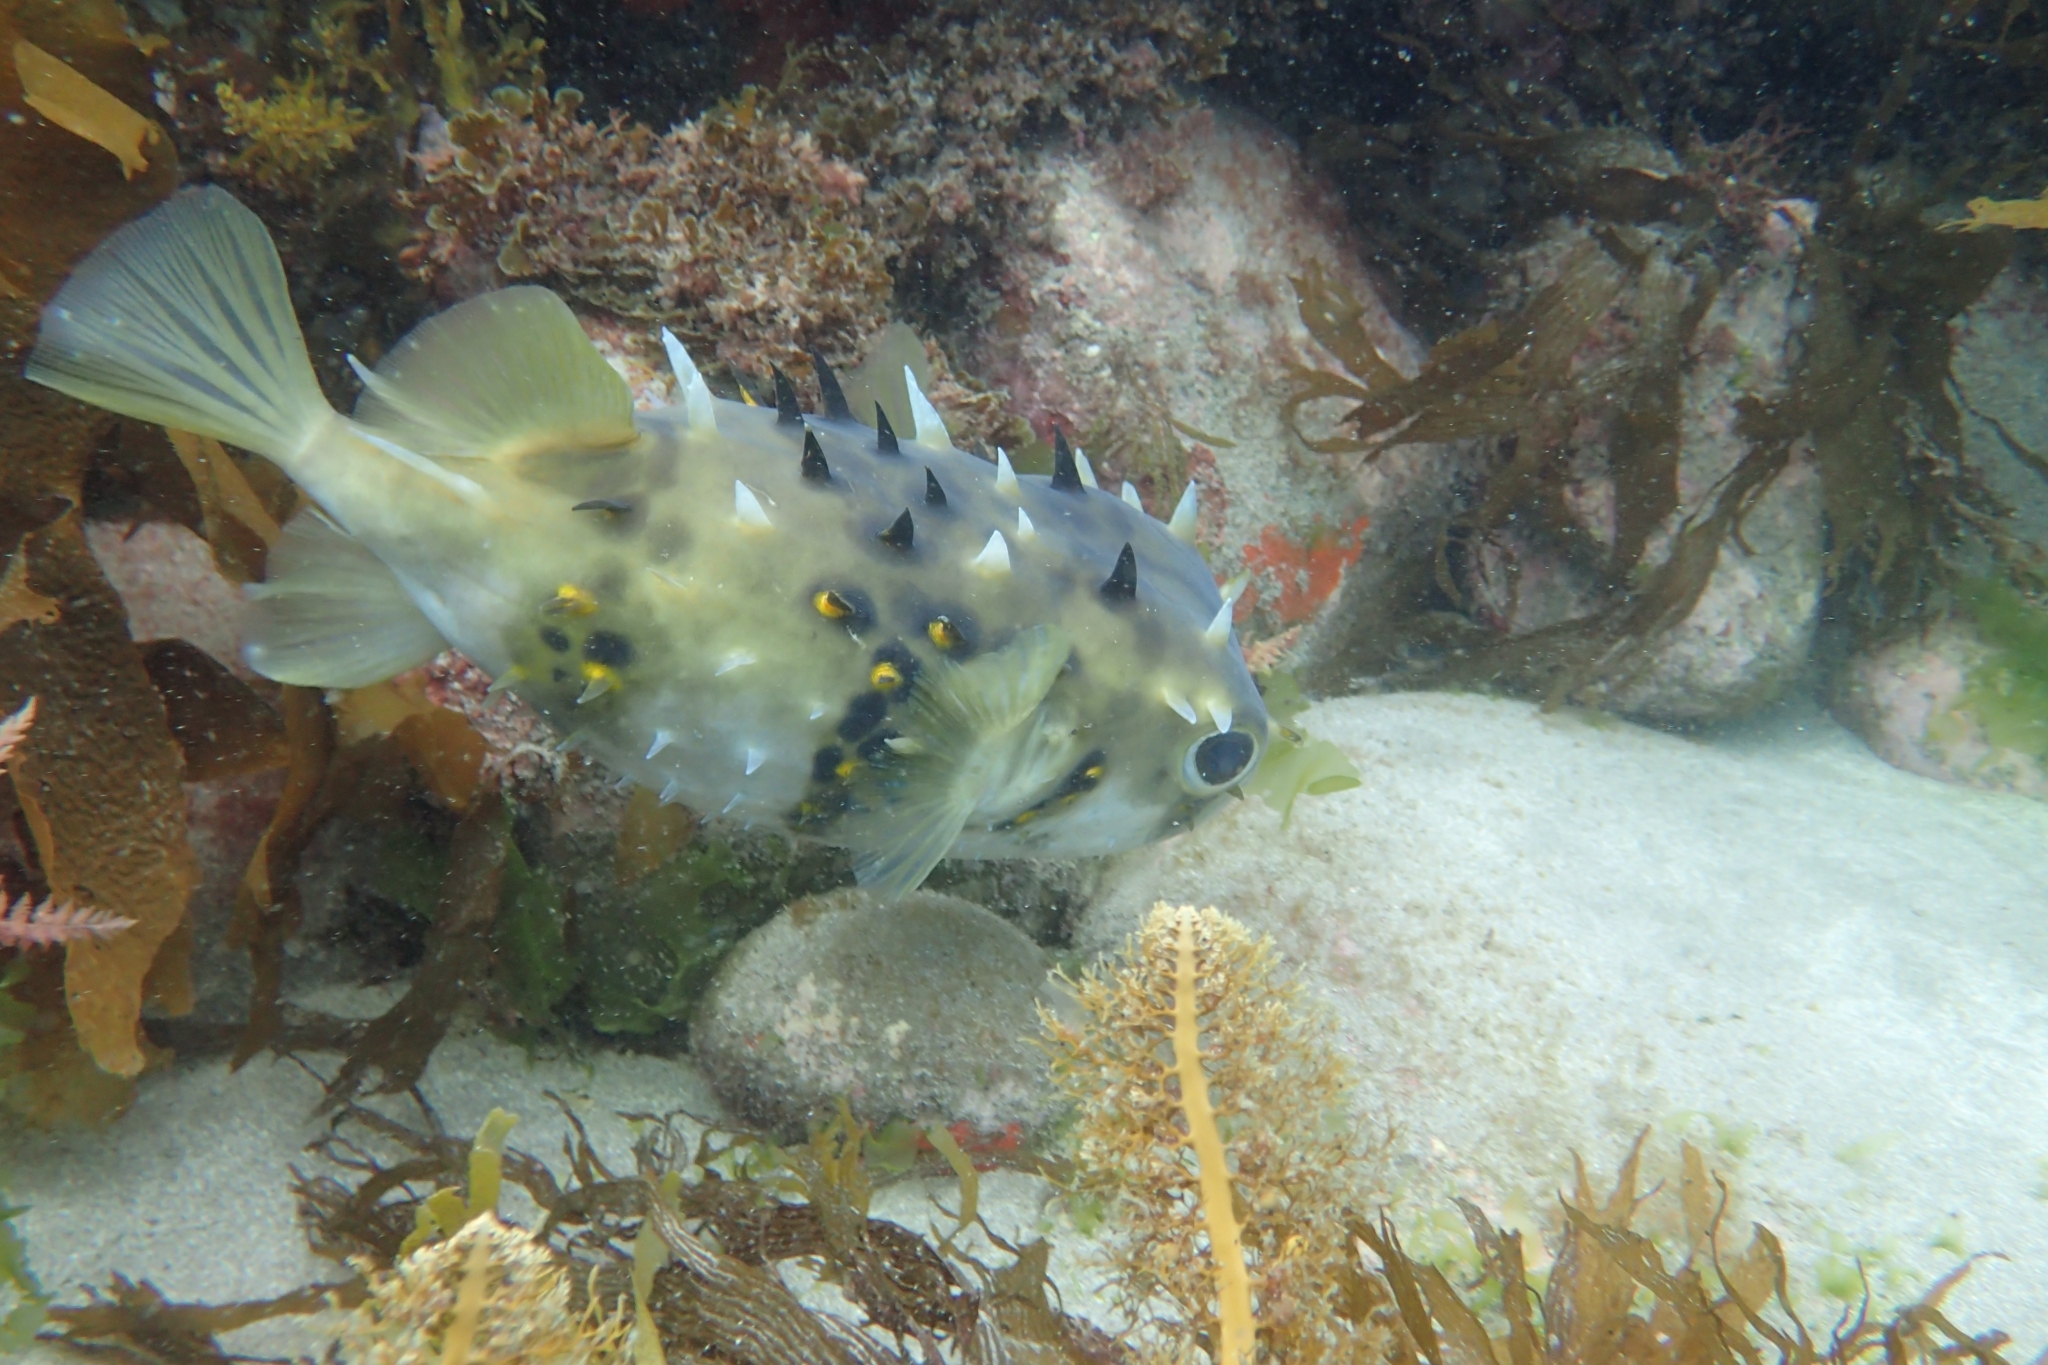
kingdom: Animalia
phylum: Chordata
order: Tetraodontiformes
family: Diodontidae
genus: Allomycterus
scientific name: Allomycterus pilatus
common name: No common name
